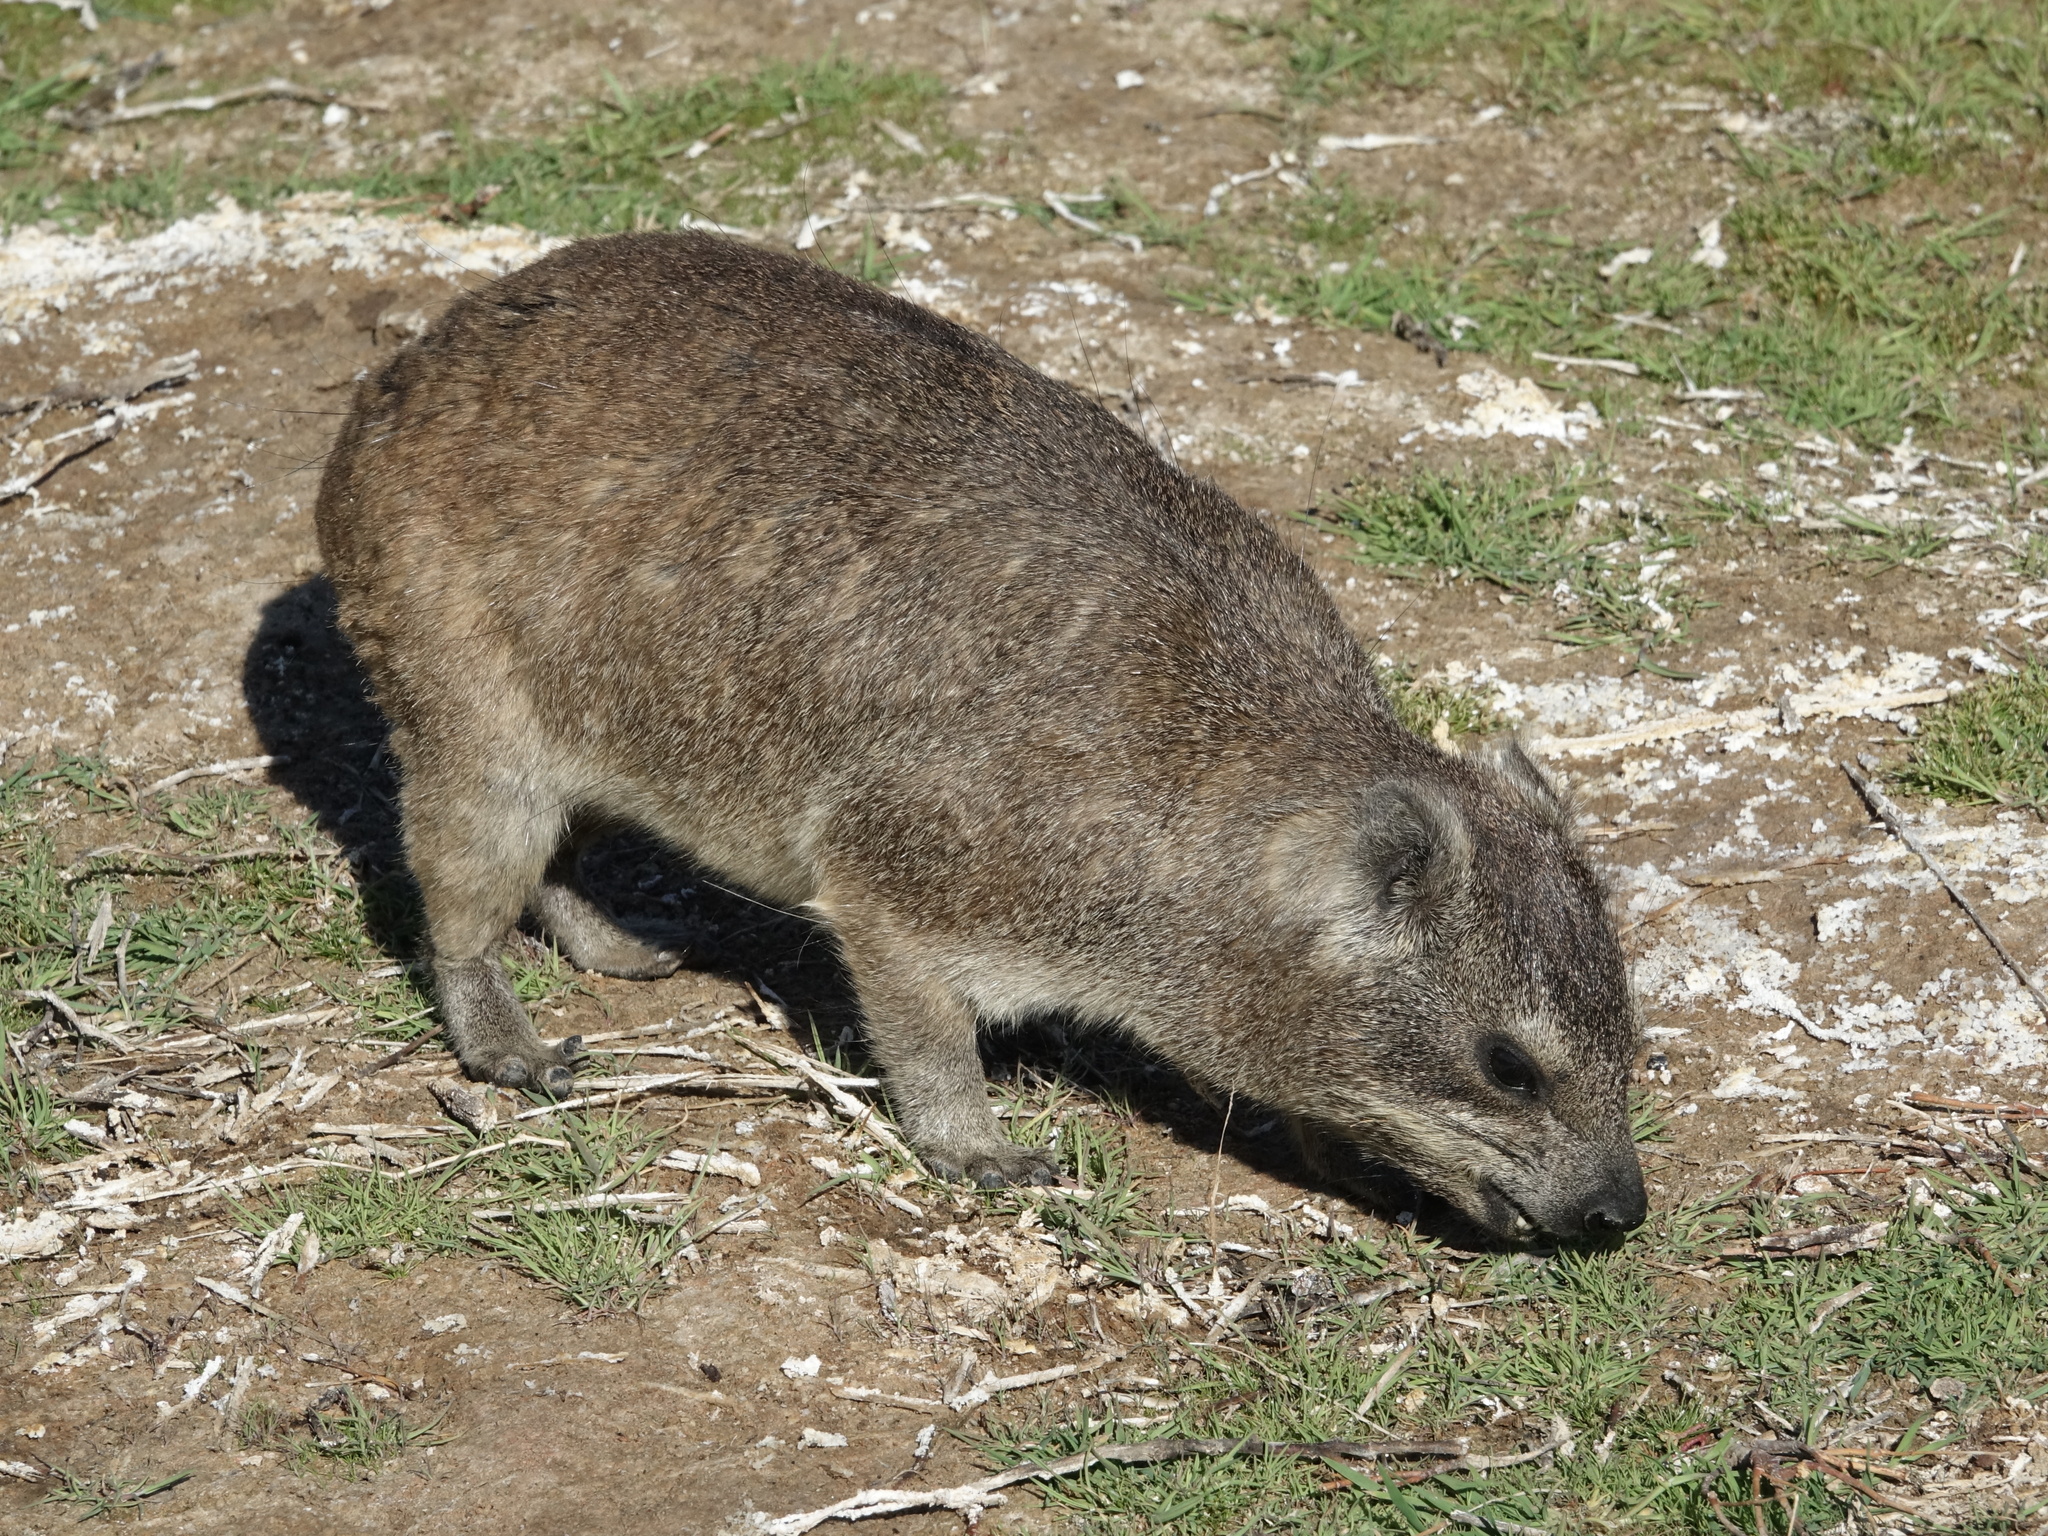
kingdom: Animalia
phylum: Chordata
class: Mammalia
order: Hyracoidea
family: Procaviidae
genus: Procavia
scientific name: Procavia capensis
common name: Rock hyrax
